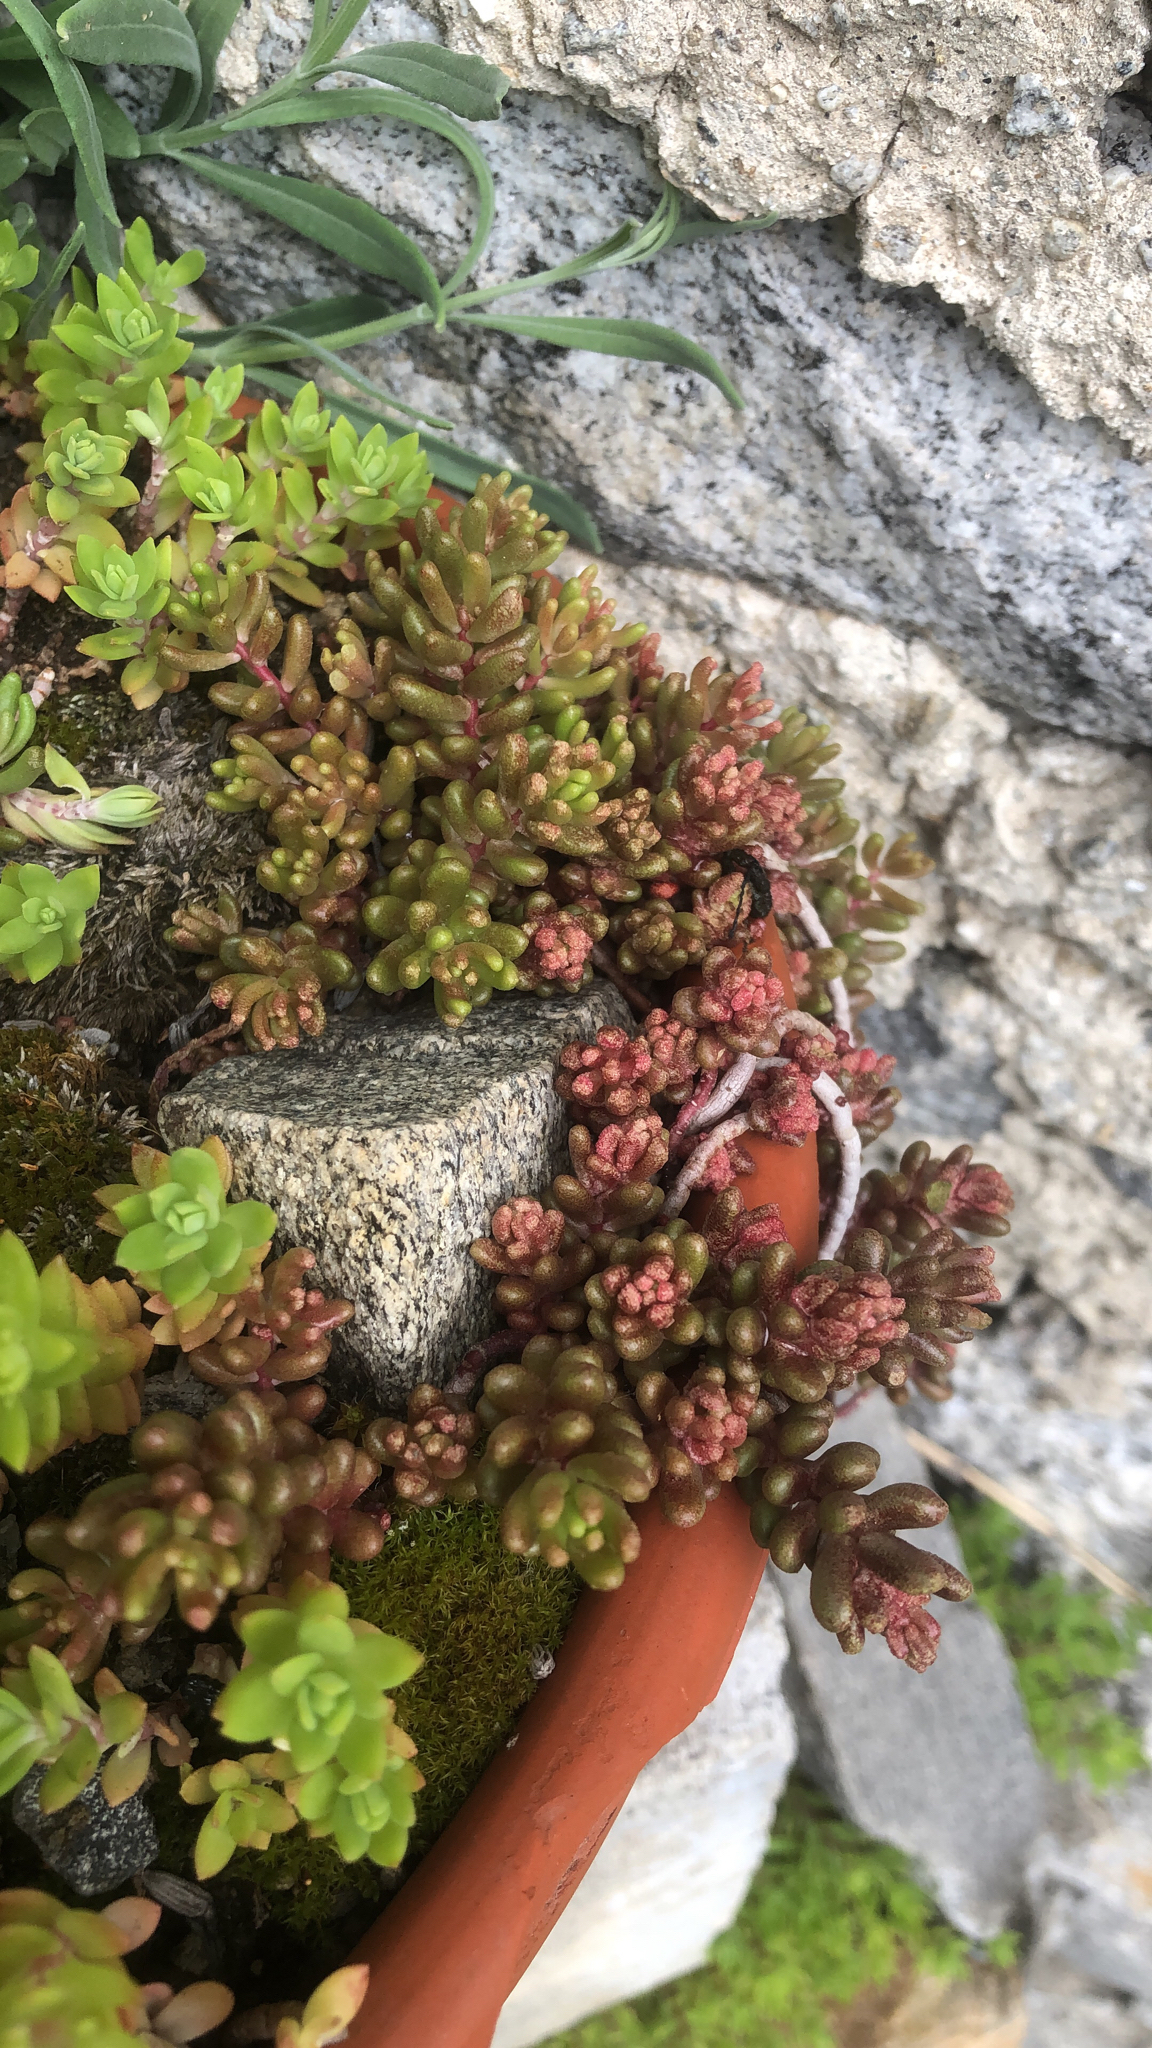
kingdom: Plantae
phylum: Tracheophyta
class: Magnoliopsida
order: Saxifragales
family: Crassulaceae
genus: Sedum
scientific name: Sedum album
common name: White stonecrop
